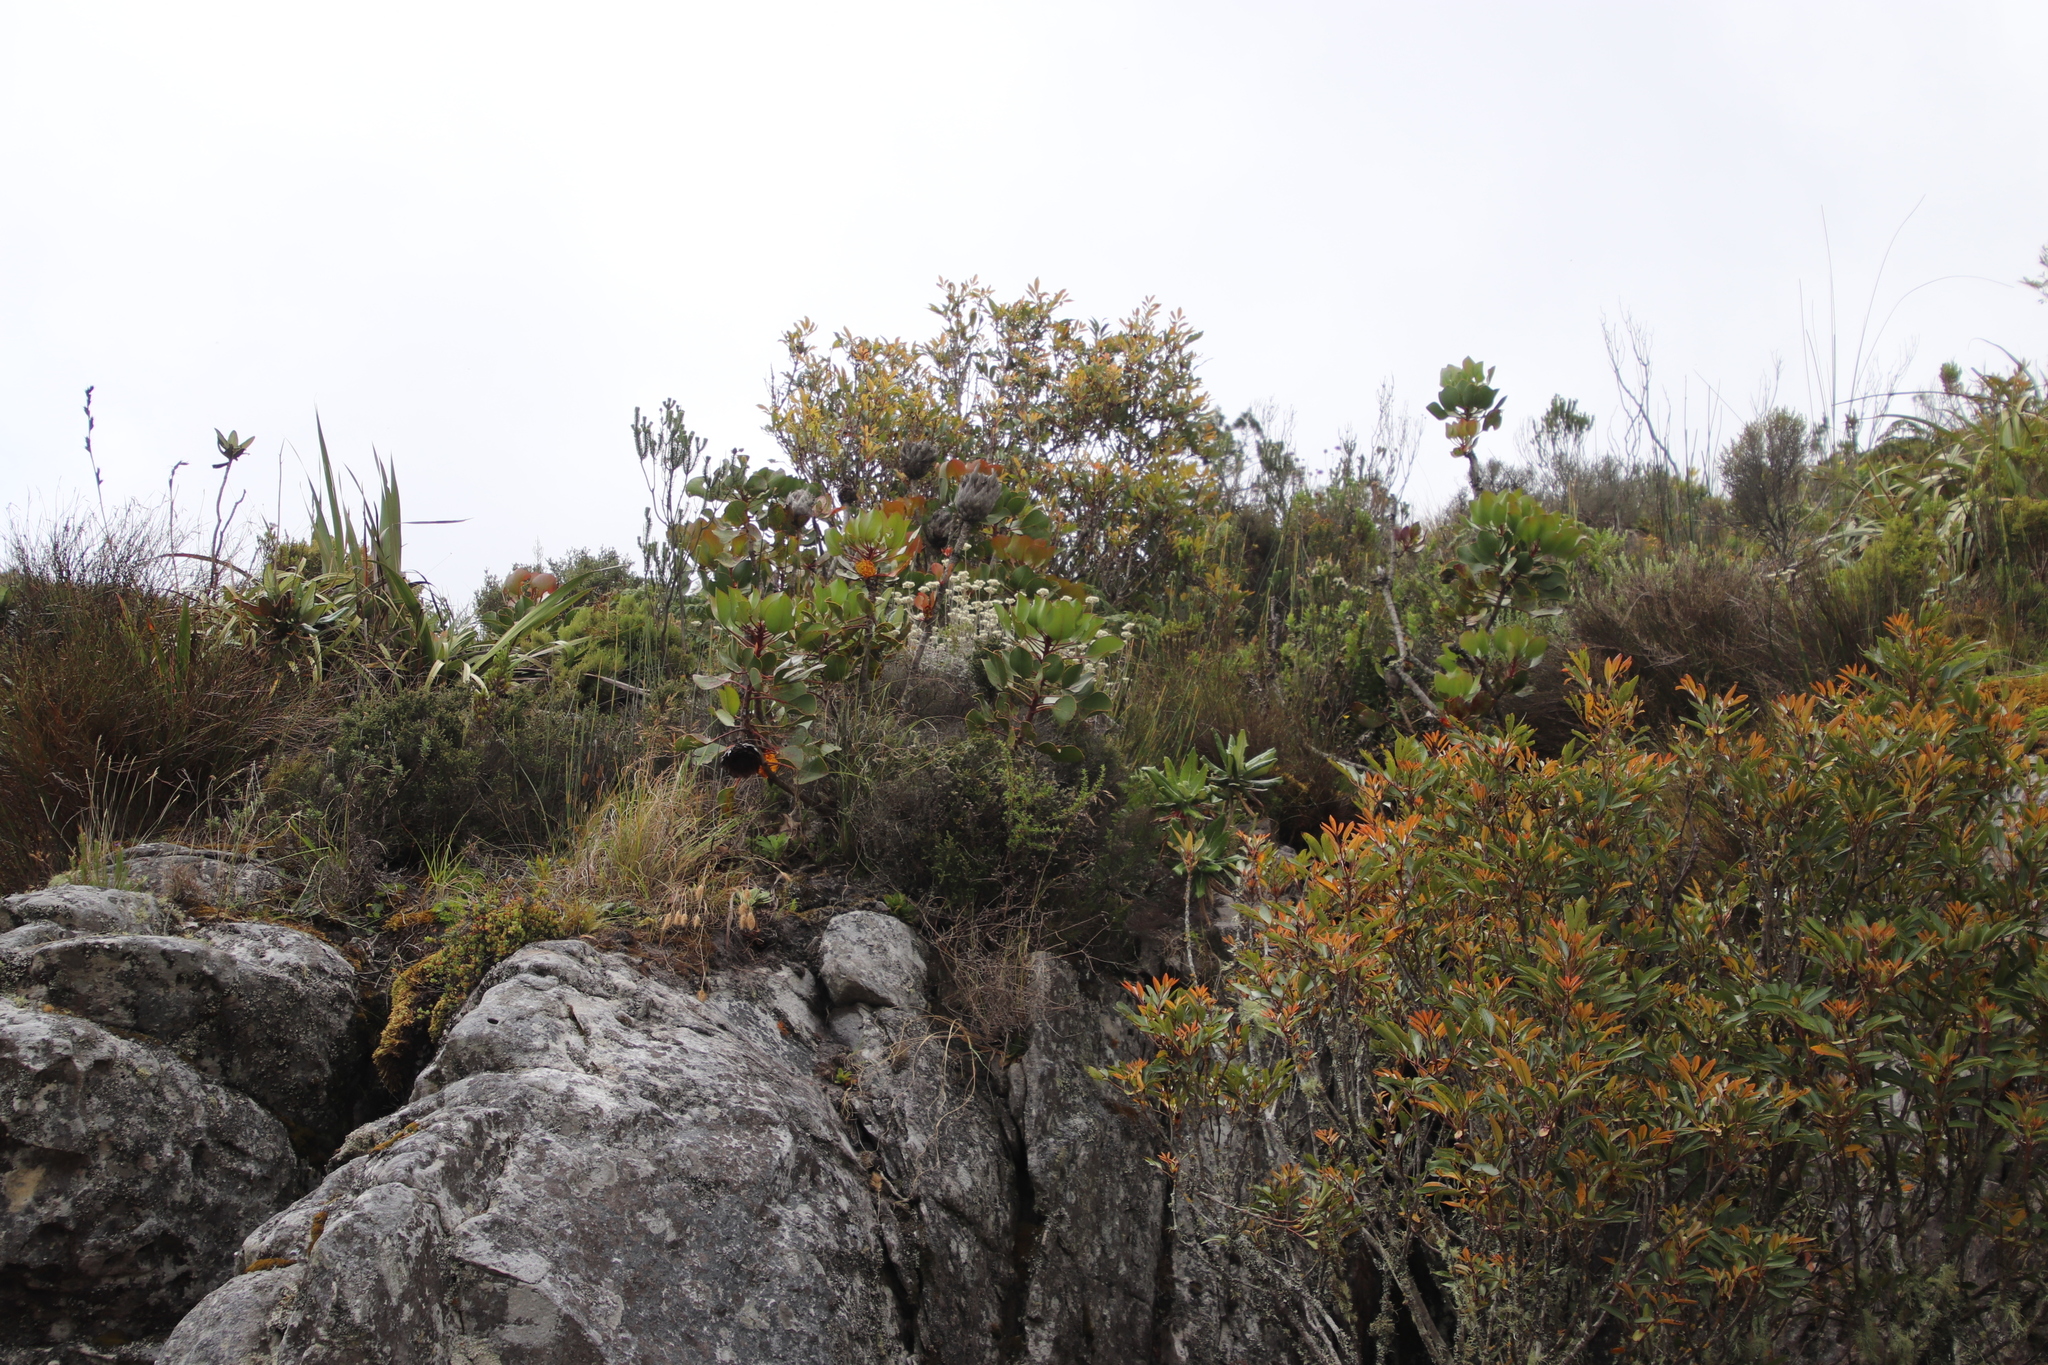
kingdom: Plantae
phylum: Tracheophyta
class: Magnoliopsida
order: Proteales
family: Proteaceae
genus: Protea
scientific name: Protea cynaroides
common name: King protea
